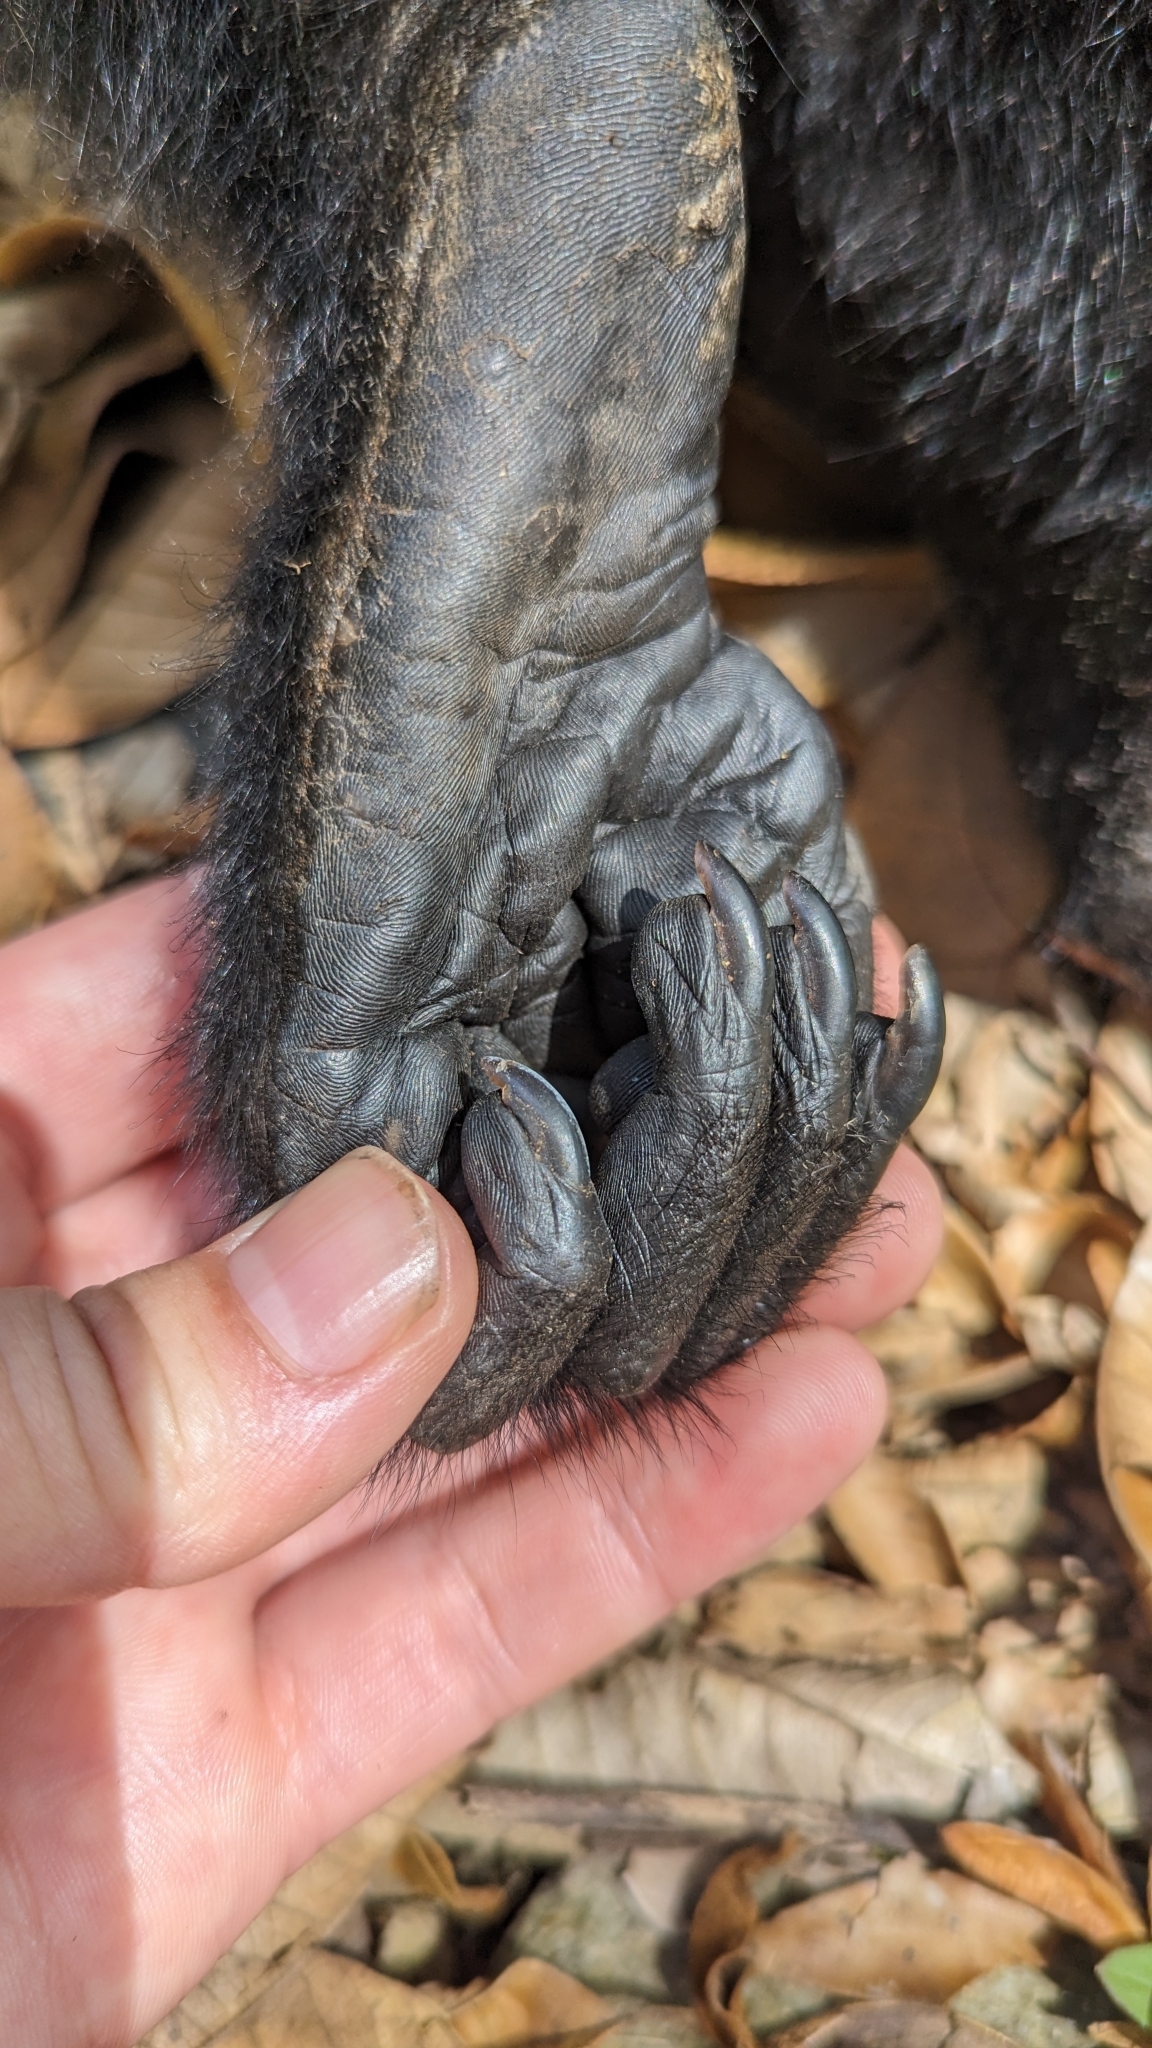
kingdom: Animalia
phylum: Chordata
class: Mammalia
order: Primates
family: Atelidae
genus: Alouatta
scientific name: Alouatta palliata
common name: Mantled howler
